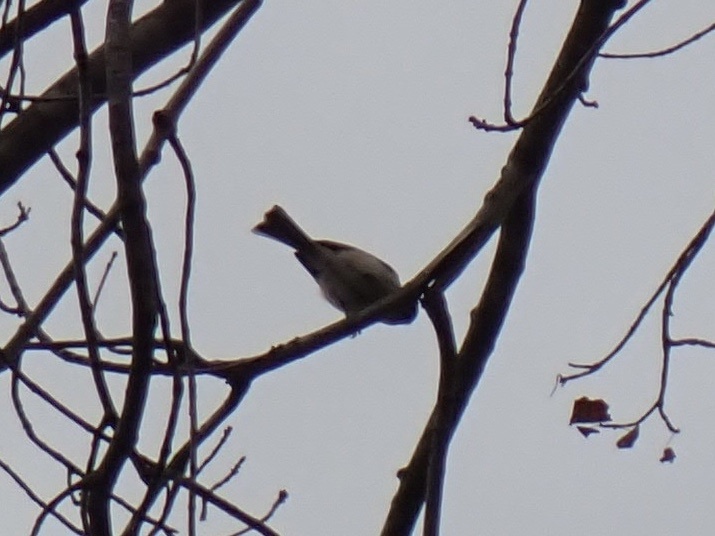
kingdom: Animalia
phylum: Chordata
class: Aves
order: Passeriformes
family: Paridae
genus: Poecile
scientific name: Poecile atricapillus
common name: Black-capped chickadee
